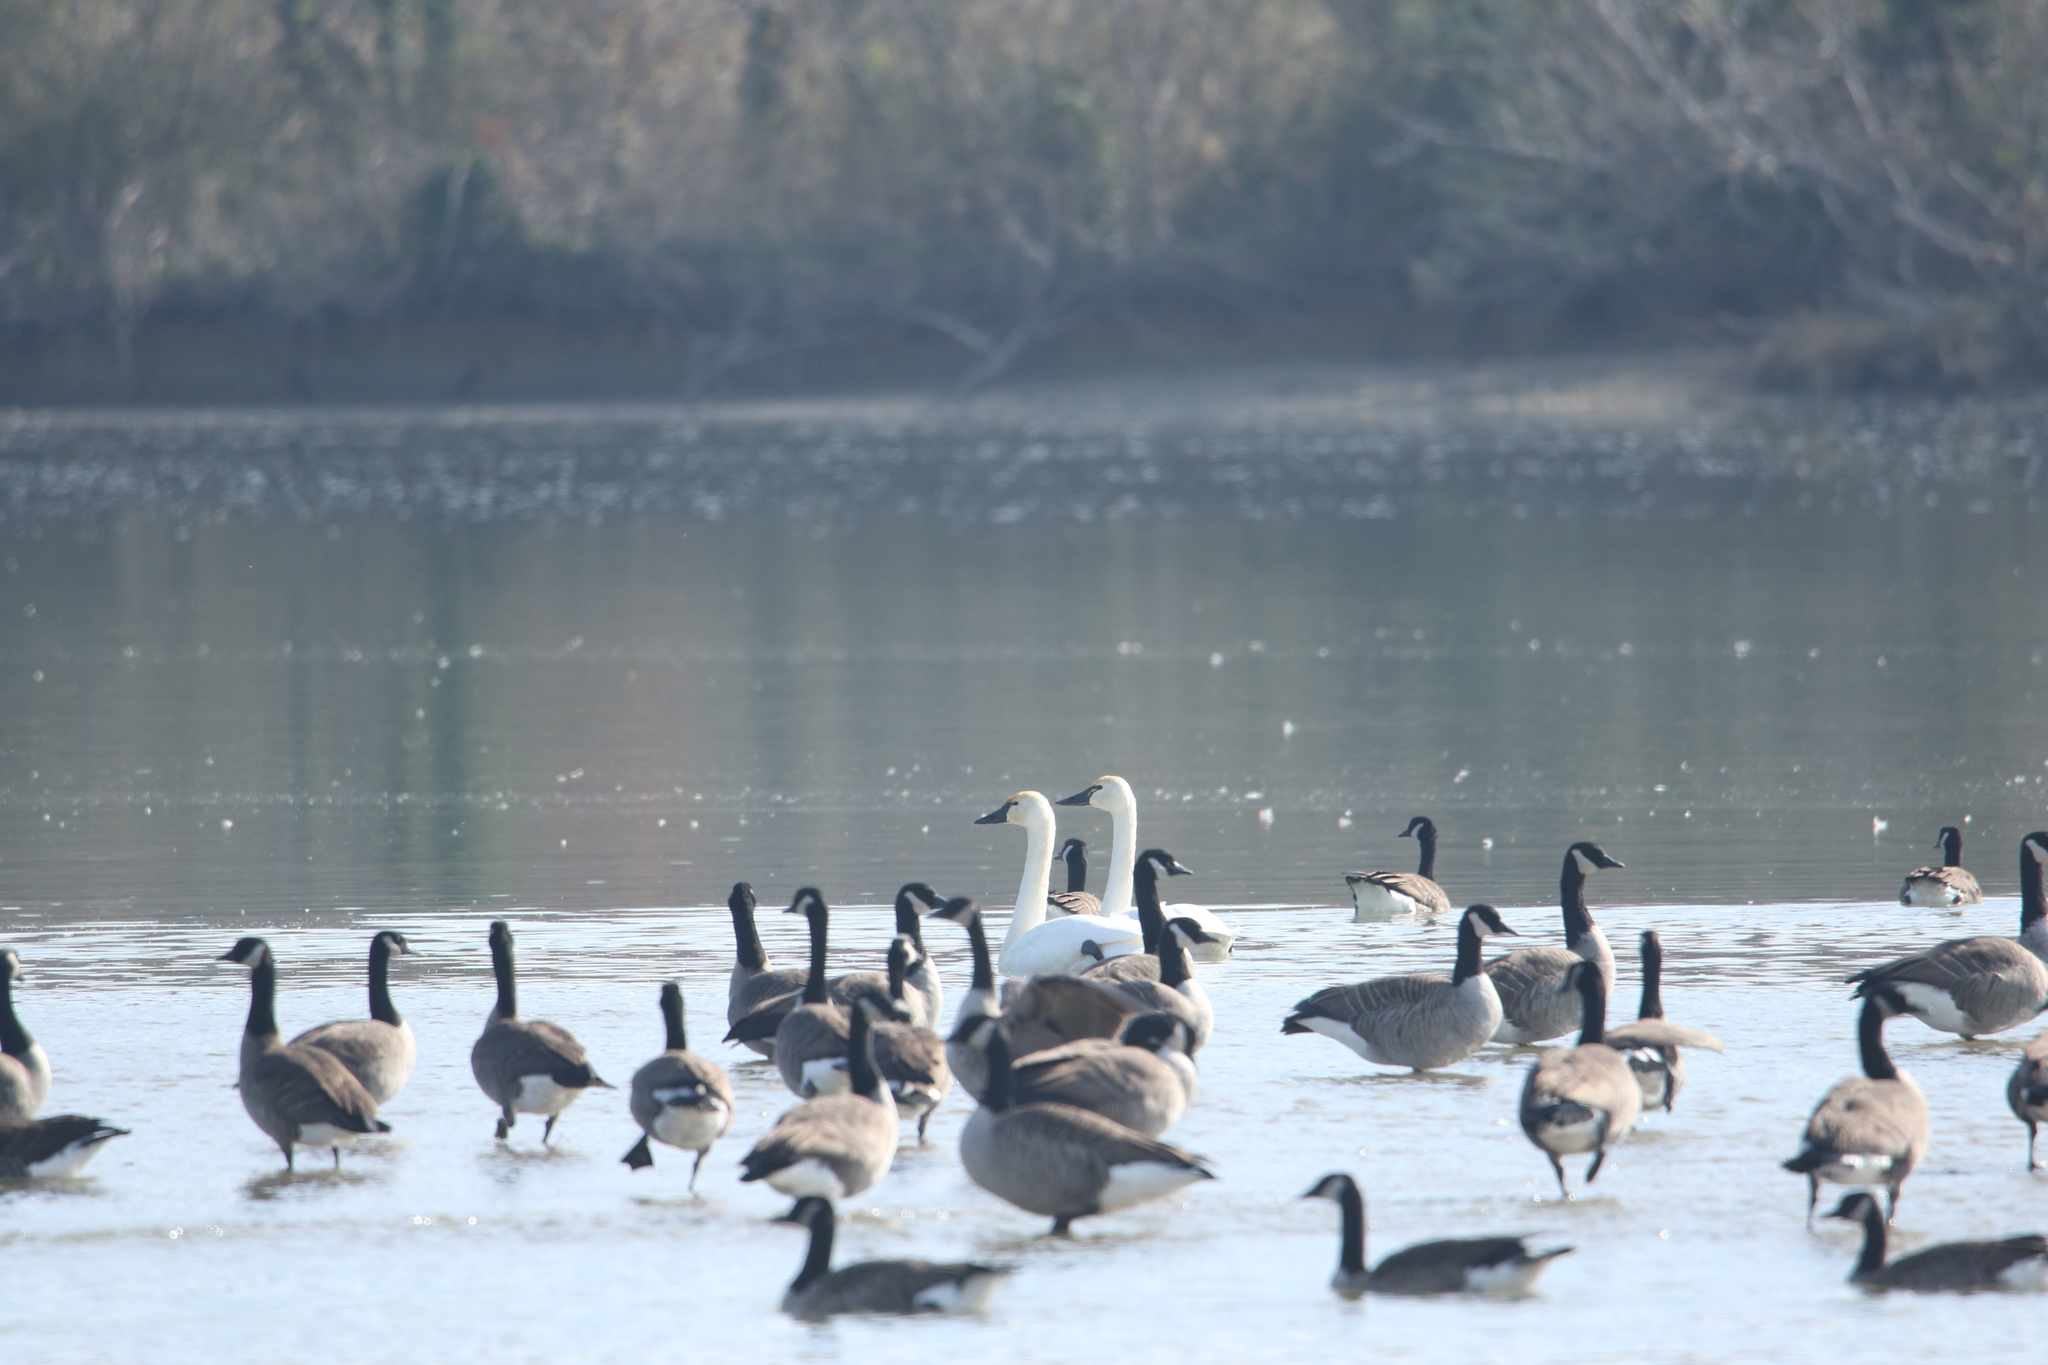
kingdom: Animalia
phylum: Chordata
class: Aves
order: Anseriformes
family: Anatidae
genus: Cygnus
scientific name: Cygnus columbianus
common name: Tundra swan
